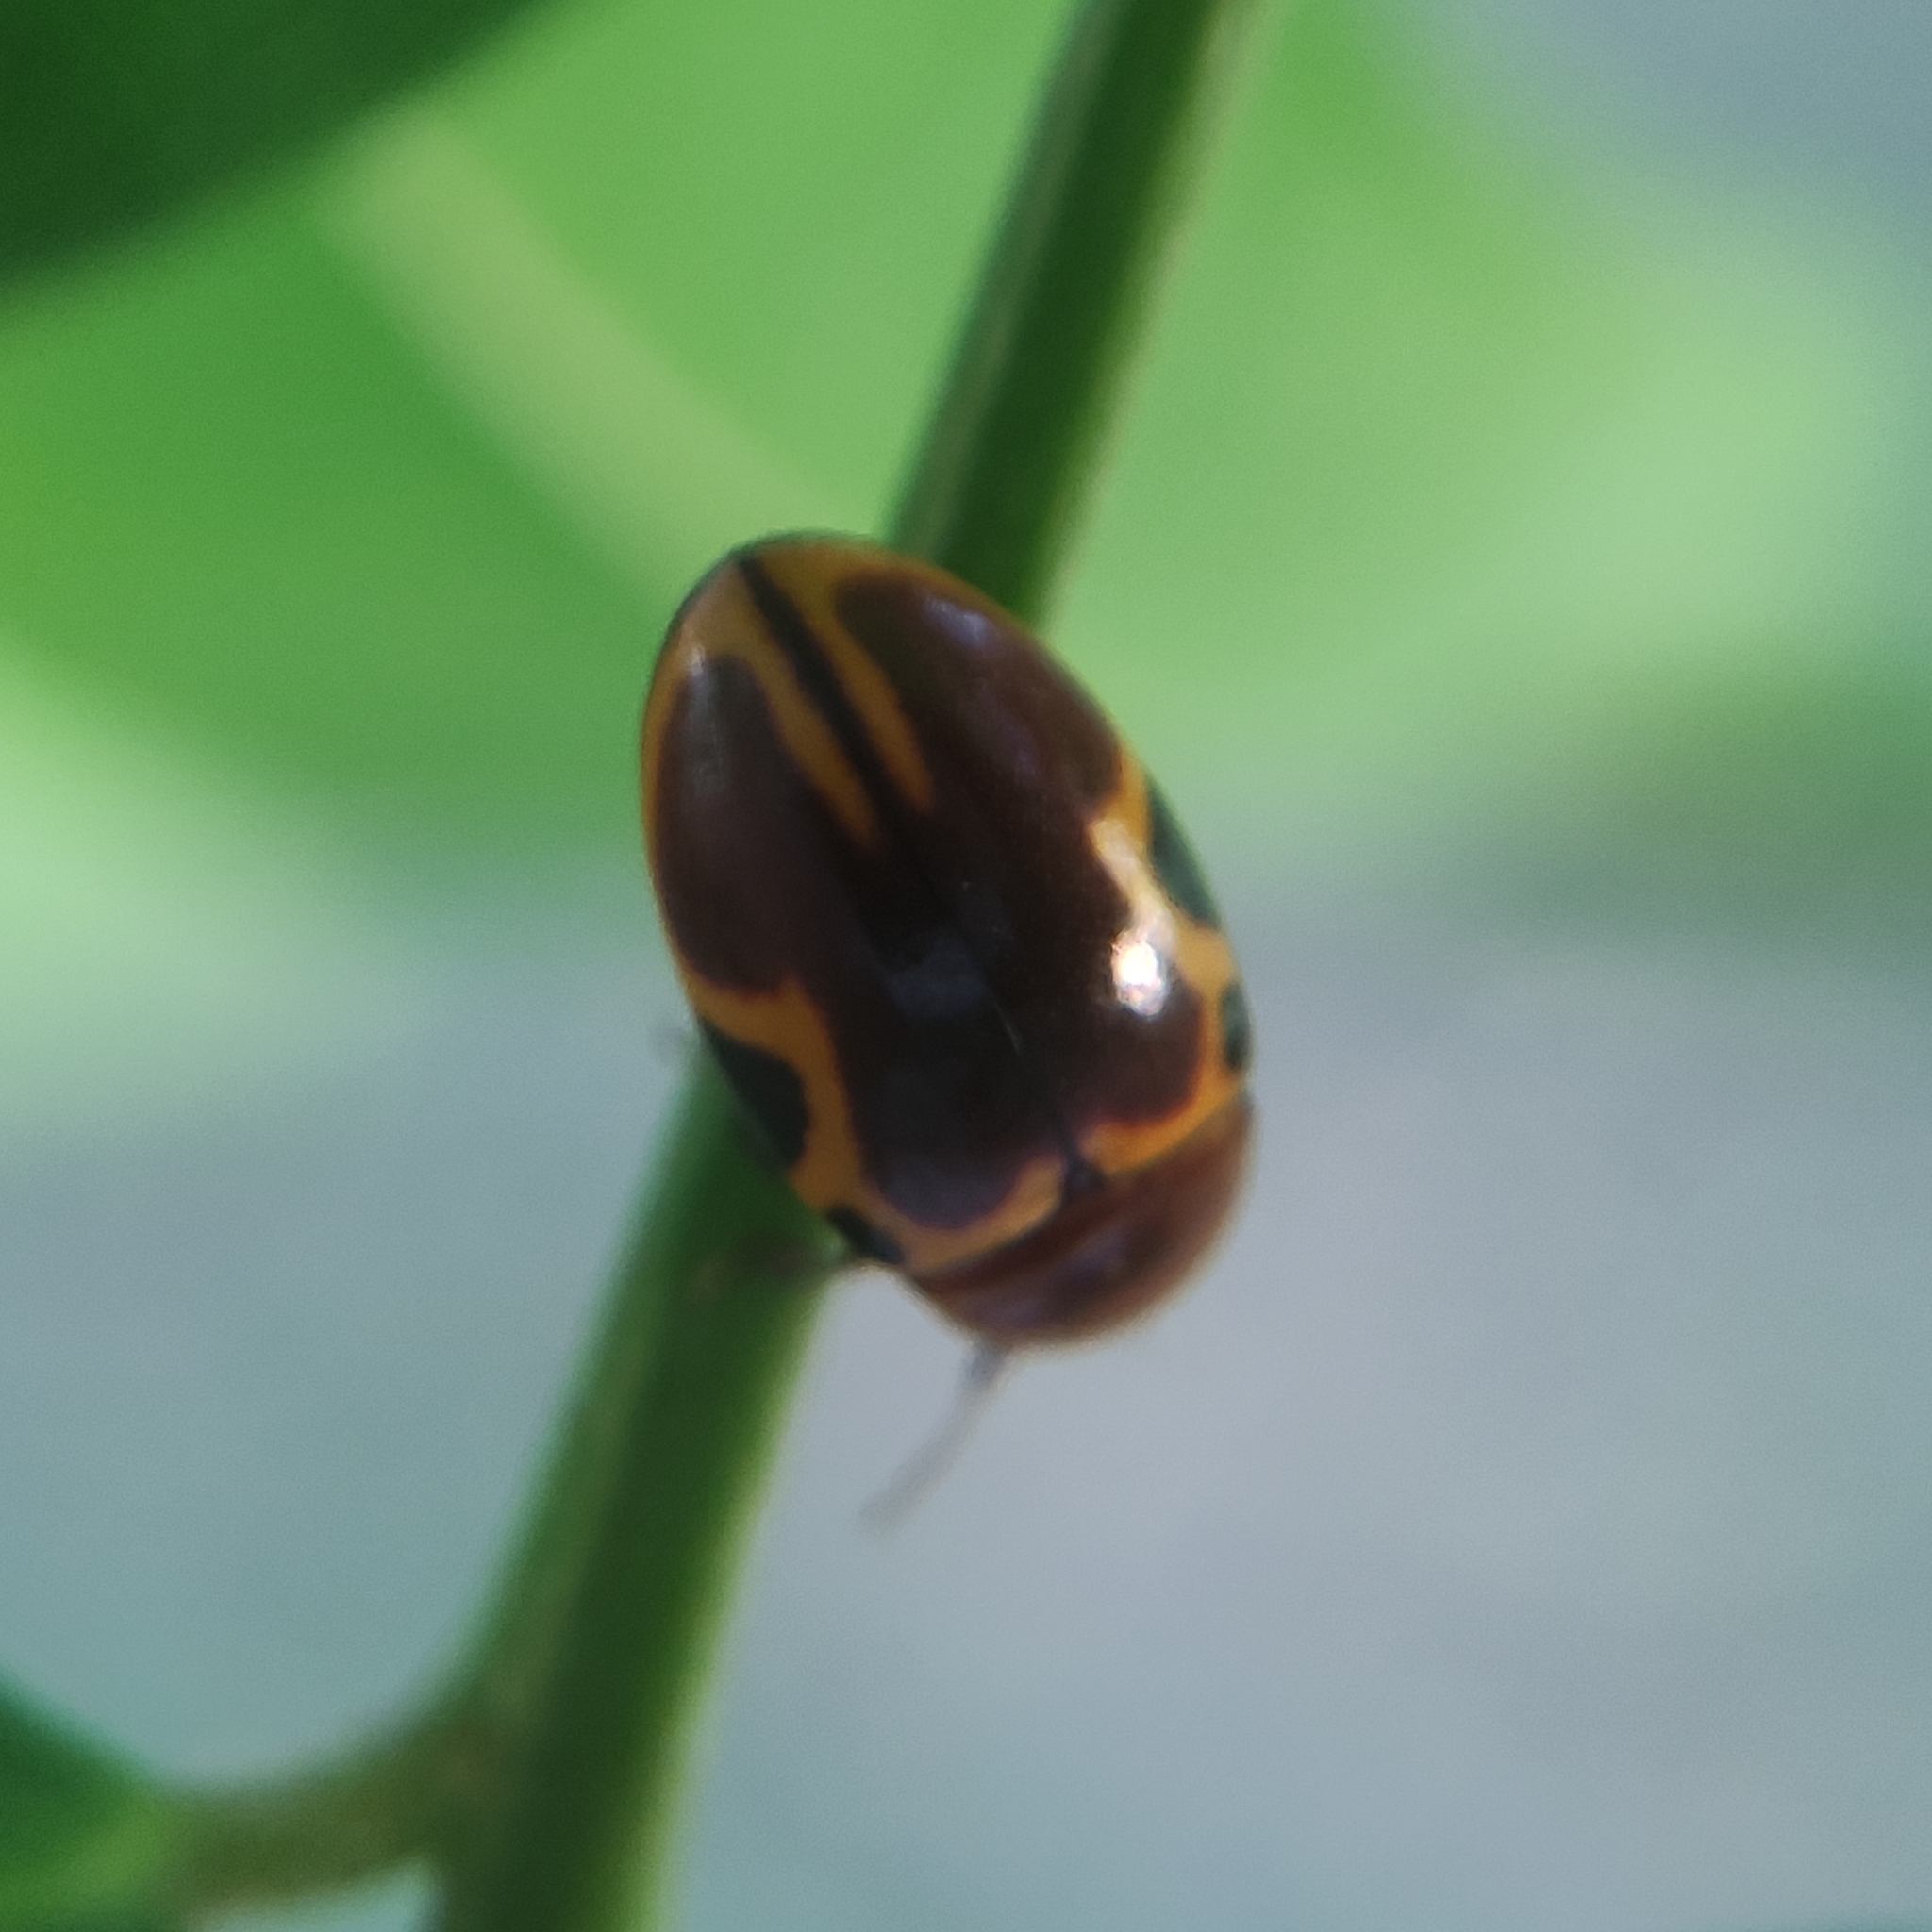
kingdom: Animalia
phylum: Arthropoda
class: Insecta
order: Coleoptera
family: Chelonariidae
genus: Chelonarium
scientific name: Chelonarium
